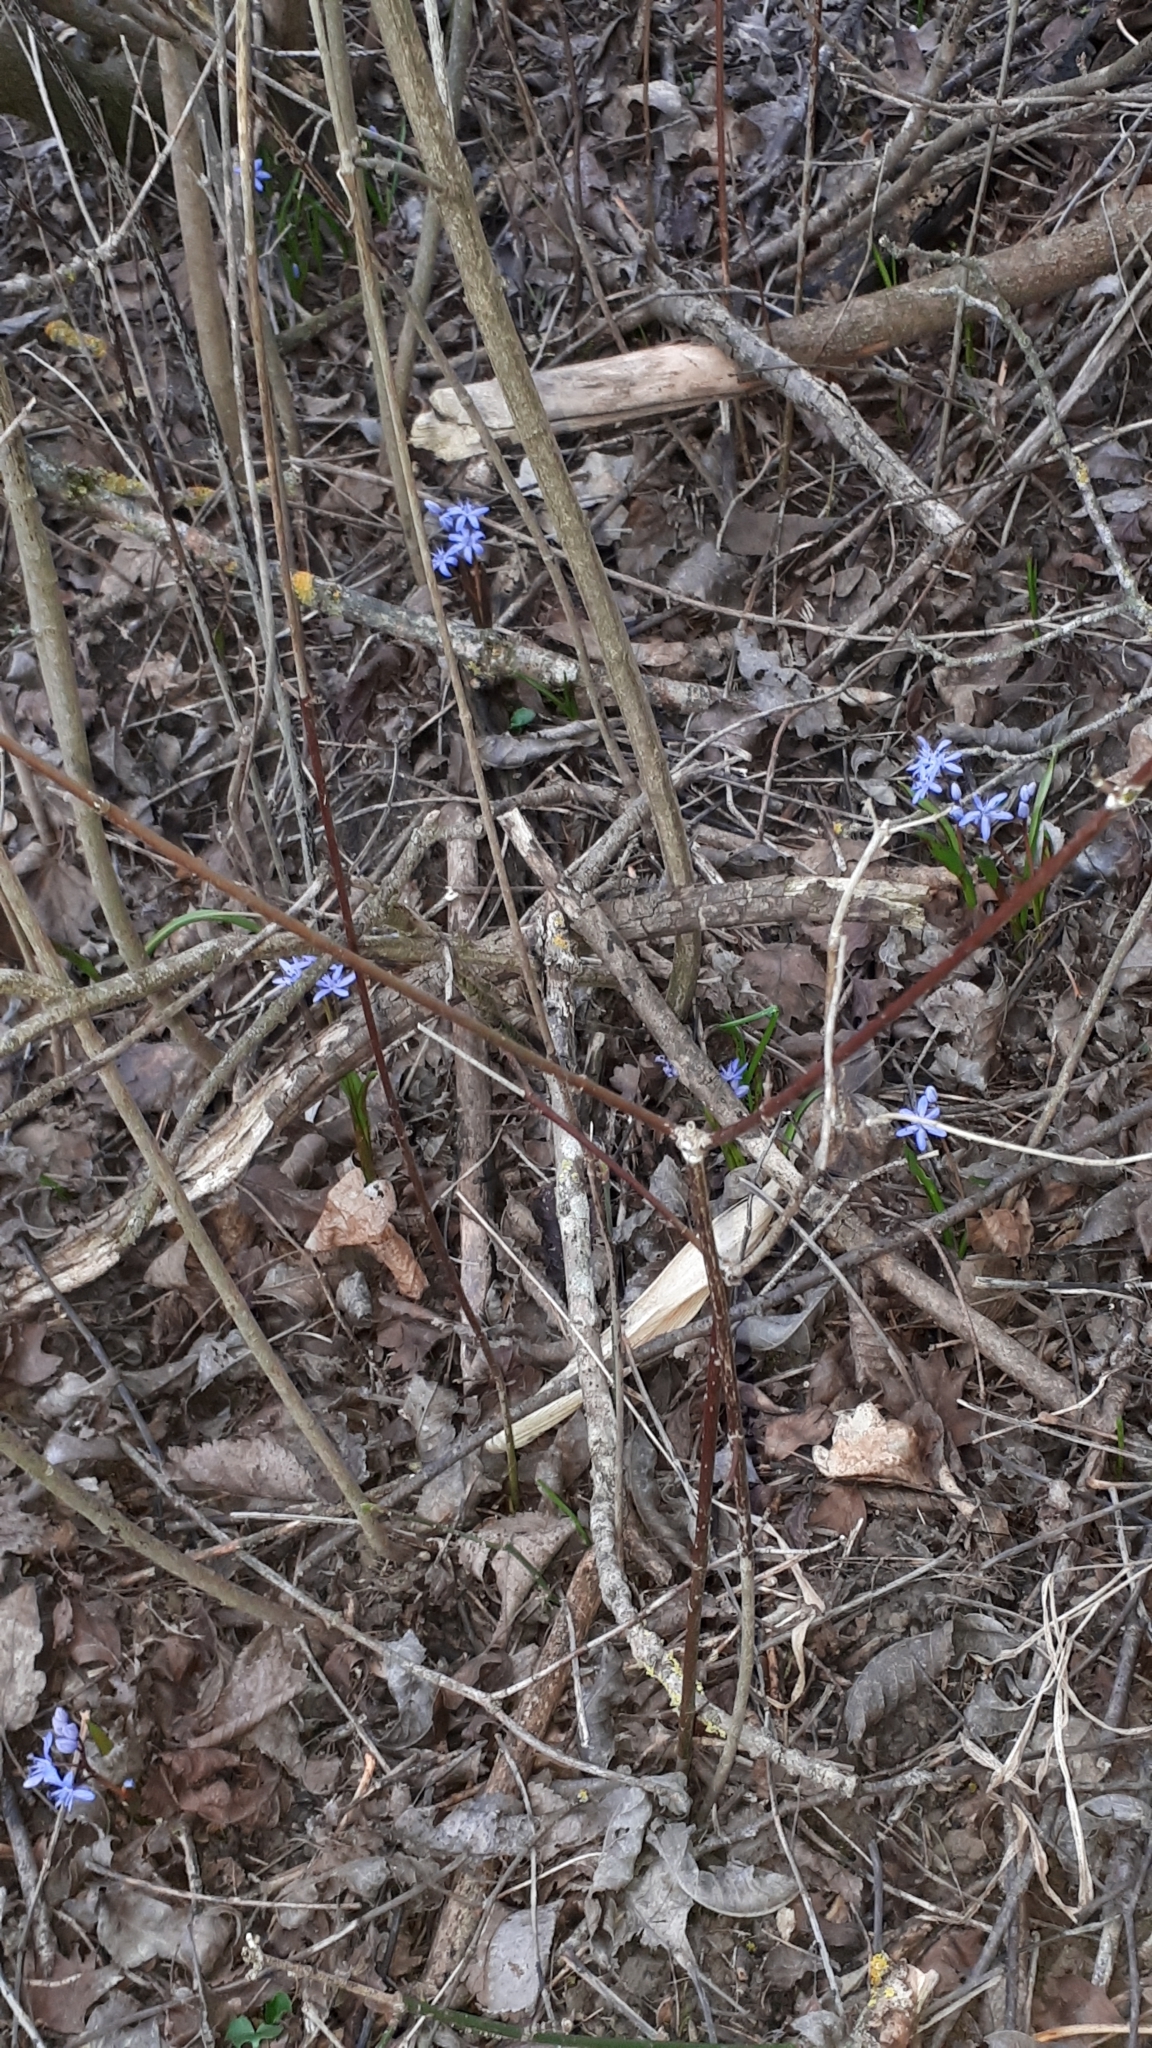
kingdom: Plantae
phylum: Tracheophyta
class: Liliopsida
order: Asparagales
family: Asparagaceae
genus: Scilla
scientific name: Scilla bifolia
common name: Alpine squill
